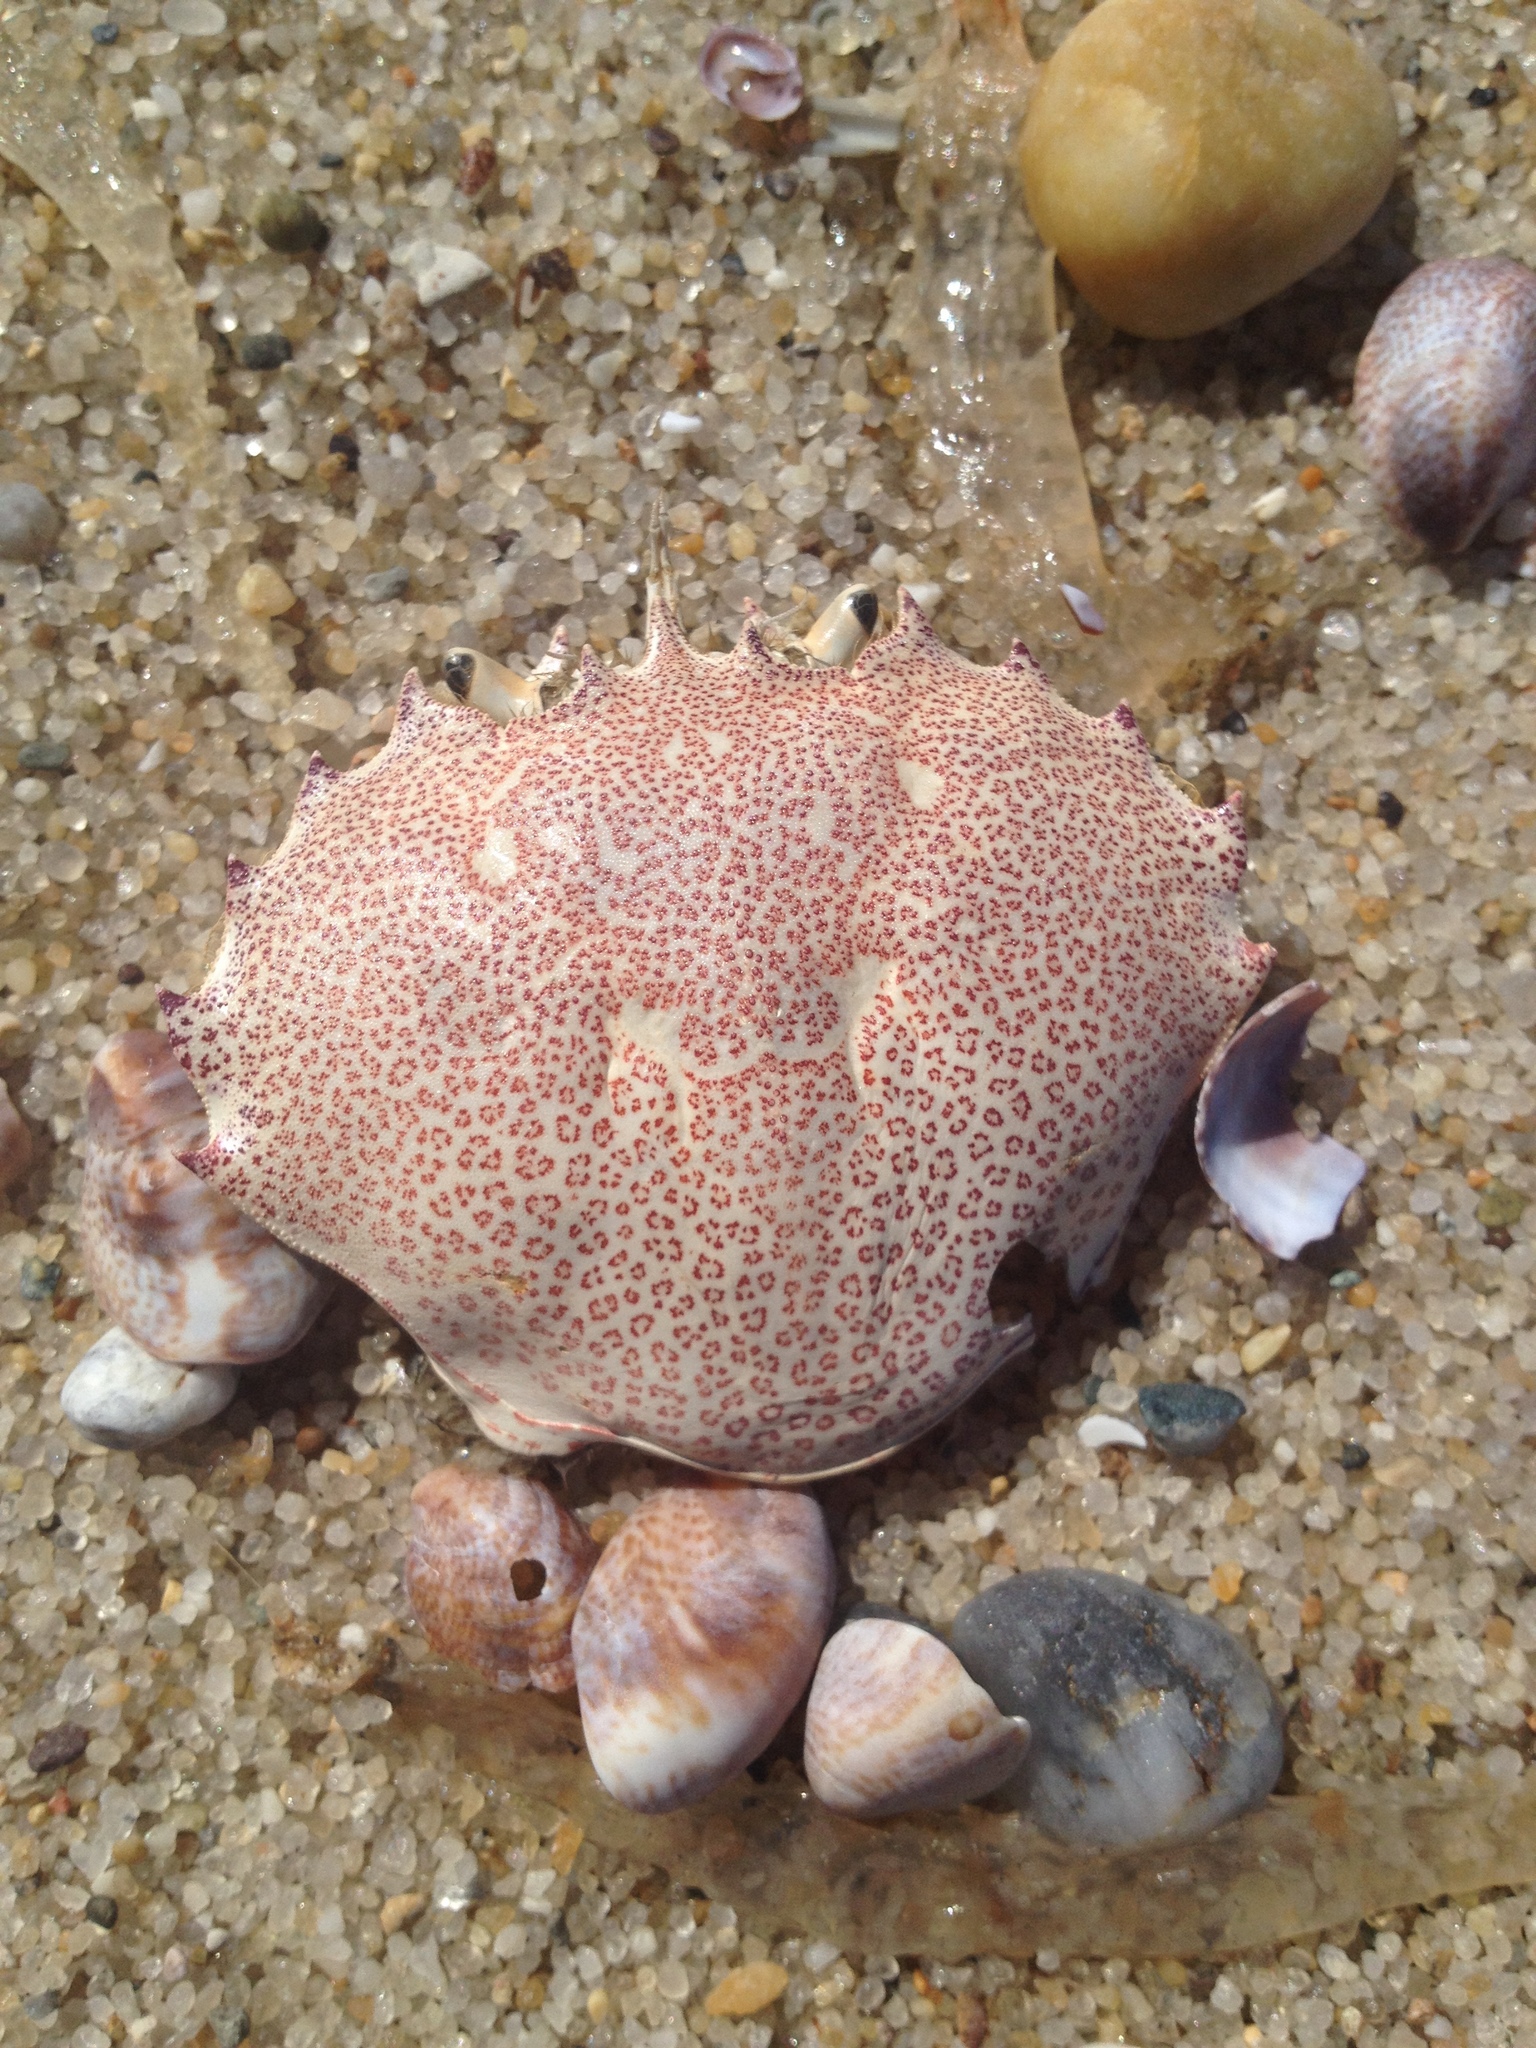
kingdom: Animalia
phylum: Arthropoda
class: Malacostraca
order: Decapoda
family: Ovalipidae
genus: Ovalipes
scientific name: Ovalipes ocellatus
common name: Lady crab
